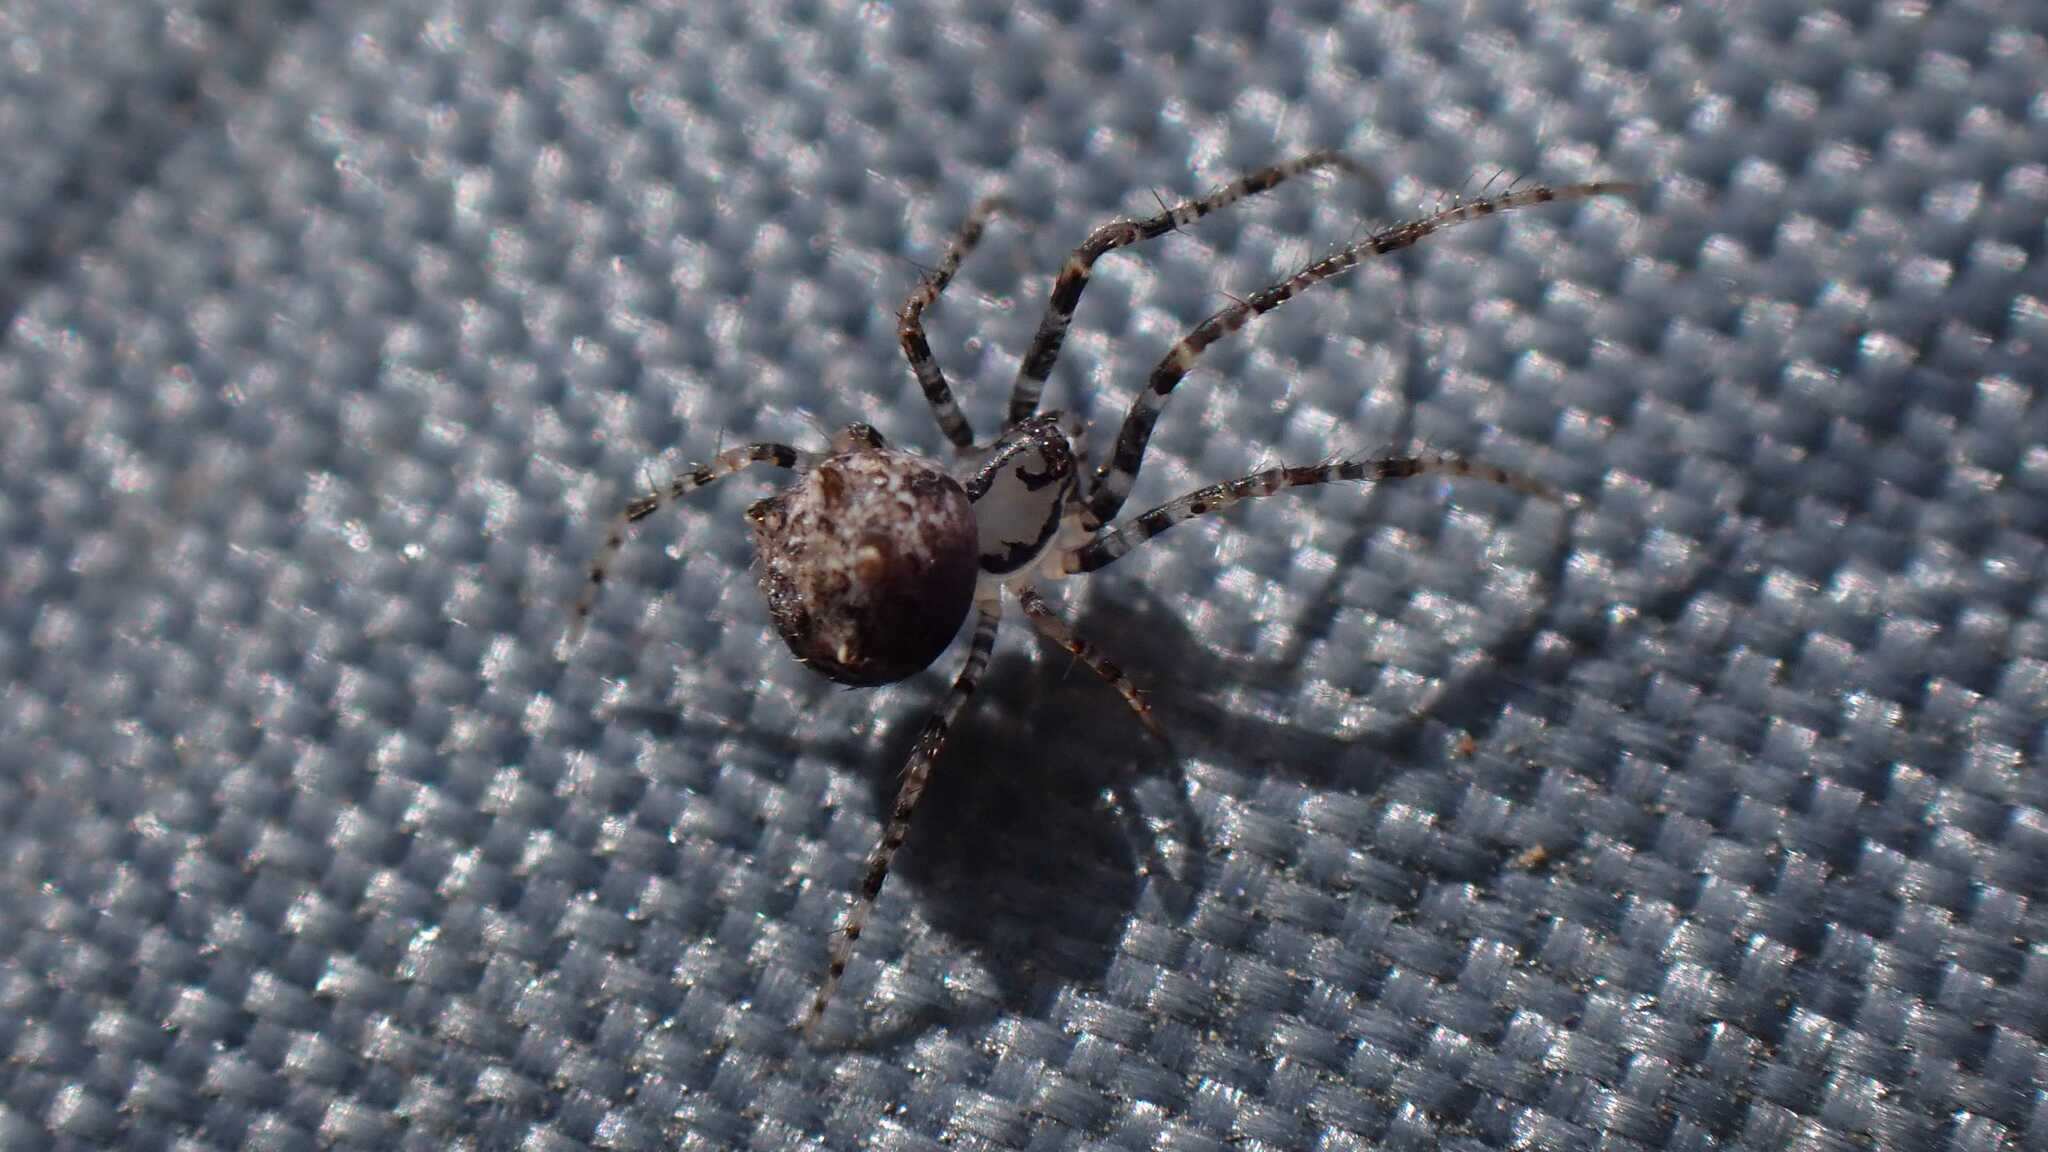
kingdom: Animalia
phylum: Arthropoda
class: Arachnida
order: Araneae
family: Mimetidae
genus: Ero
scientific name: Ero aphana
